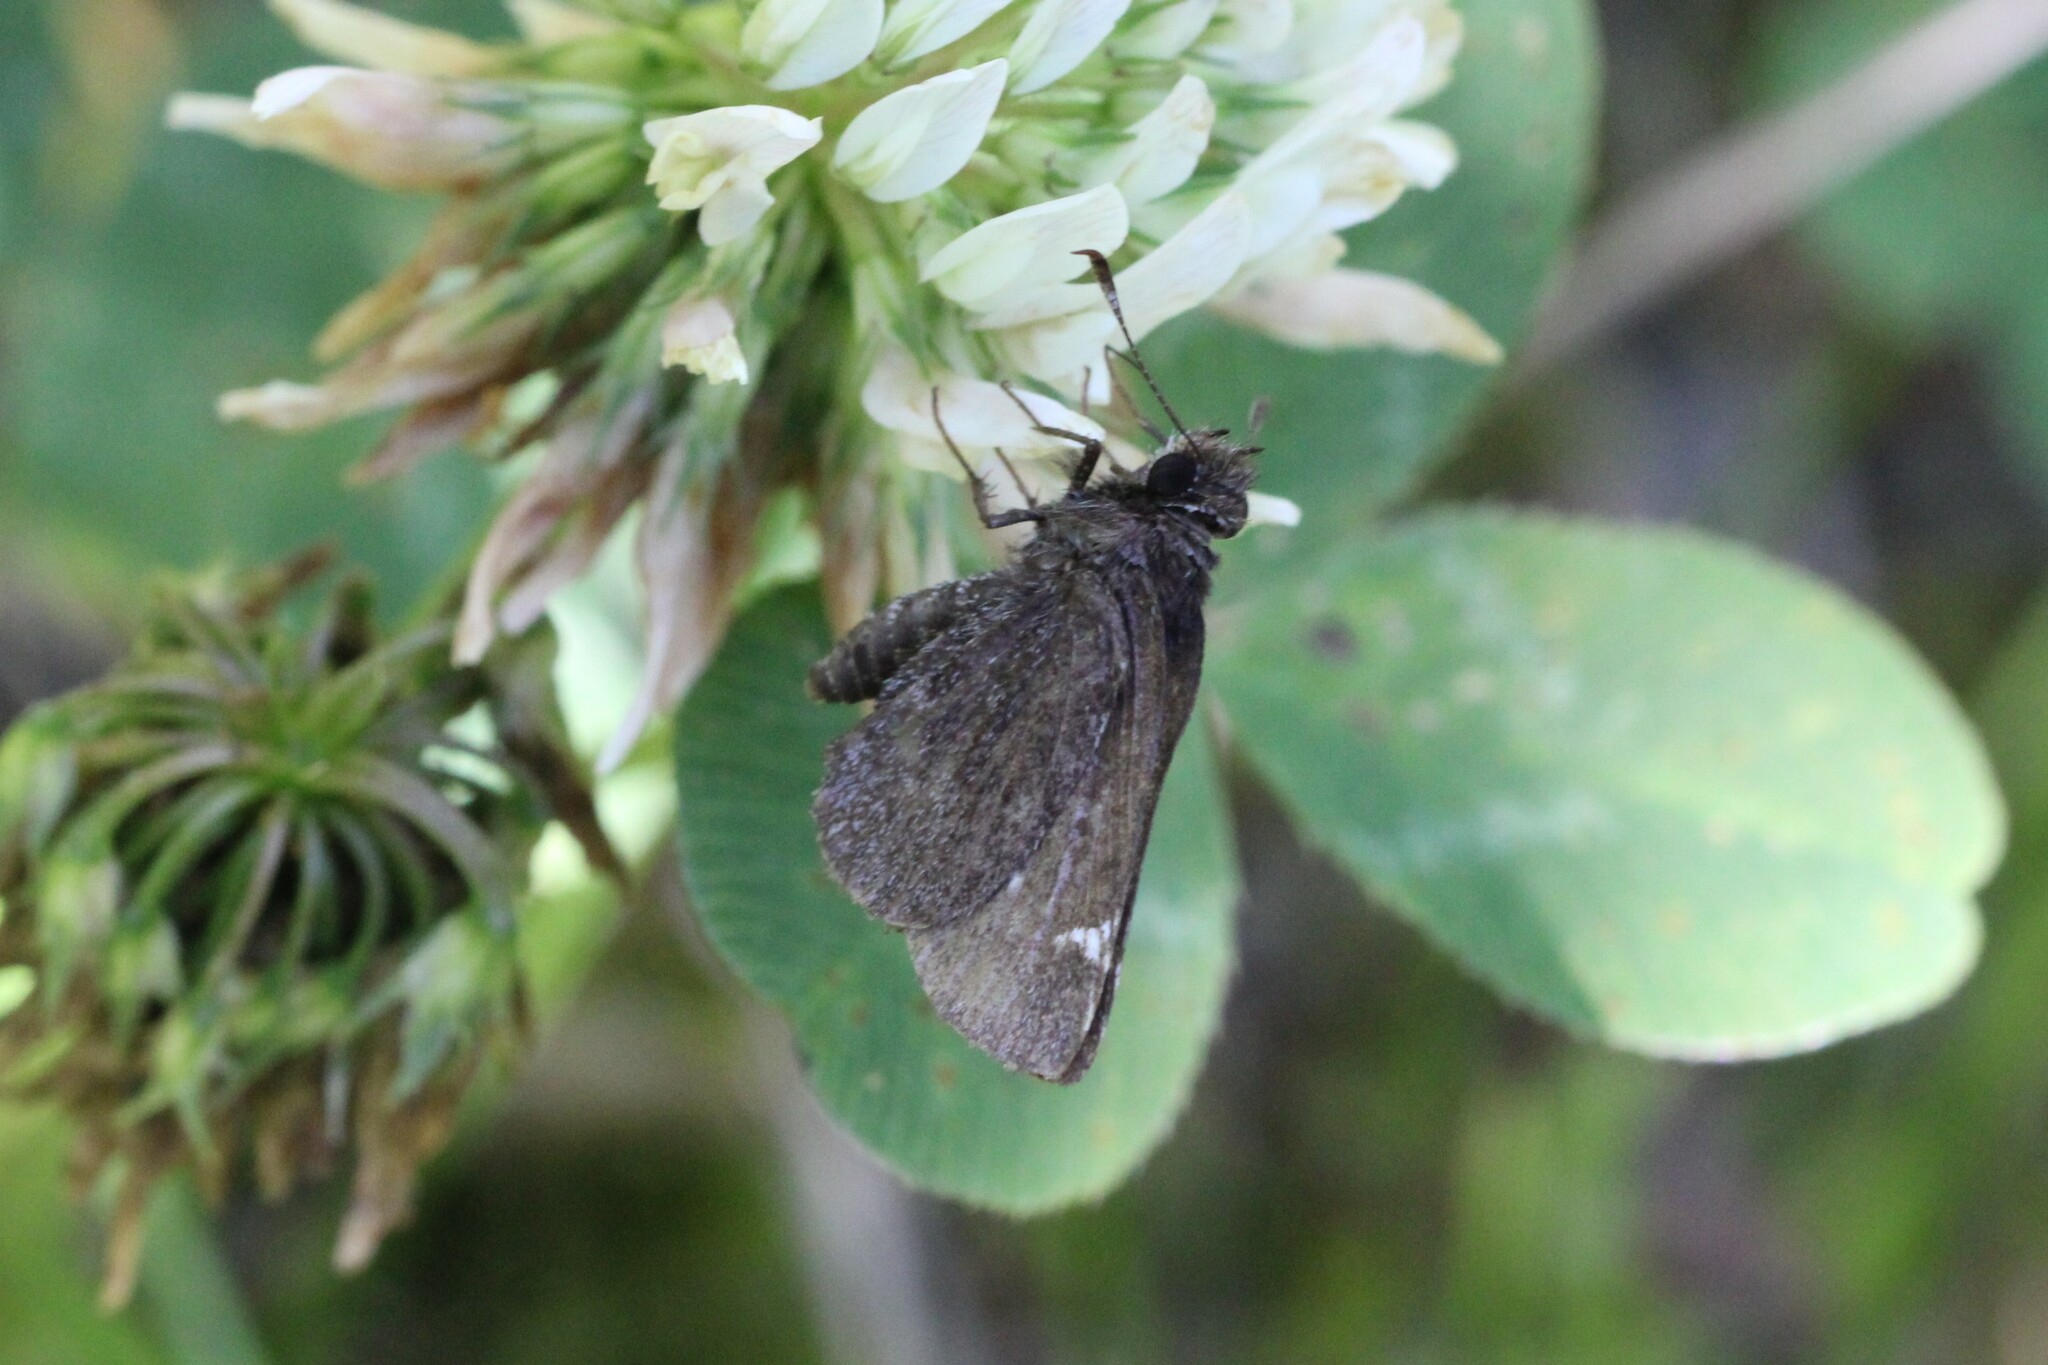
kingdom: Animalia
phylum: Arthropoda
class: Insecta
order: Lepidoptera
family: Hesperiidae
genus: Mastor
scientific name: Mastor vialis
